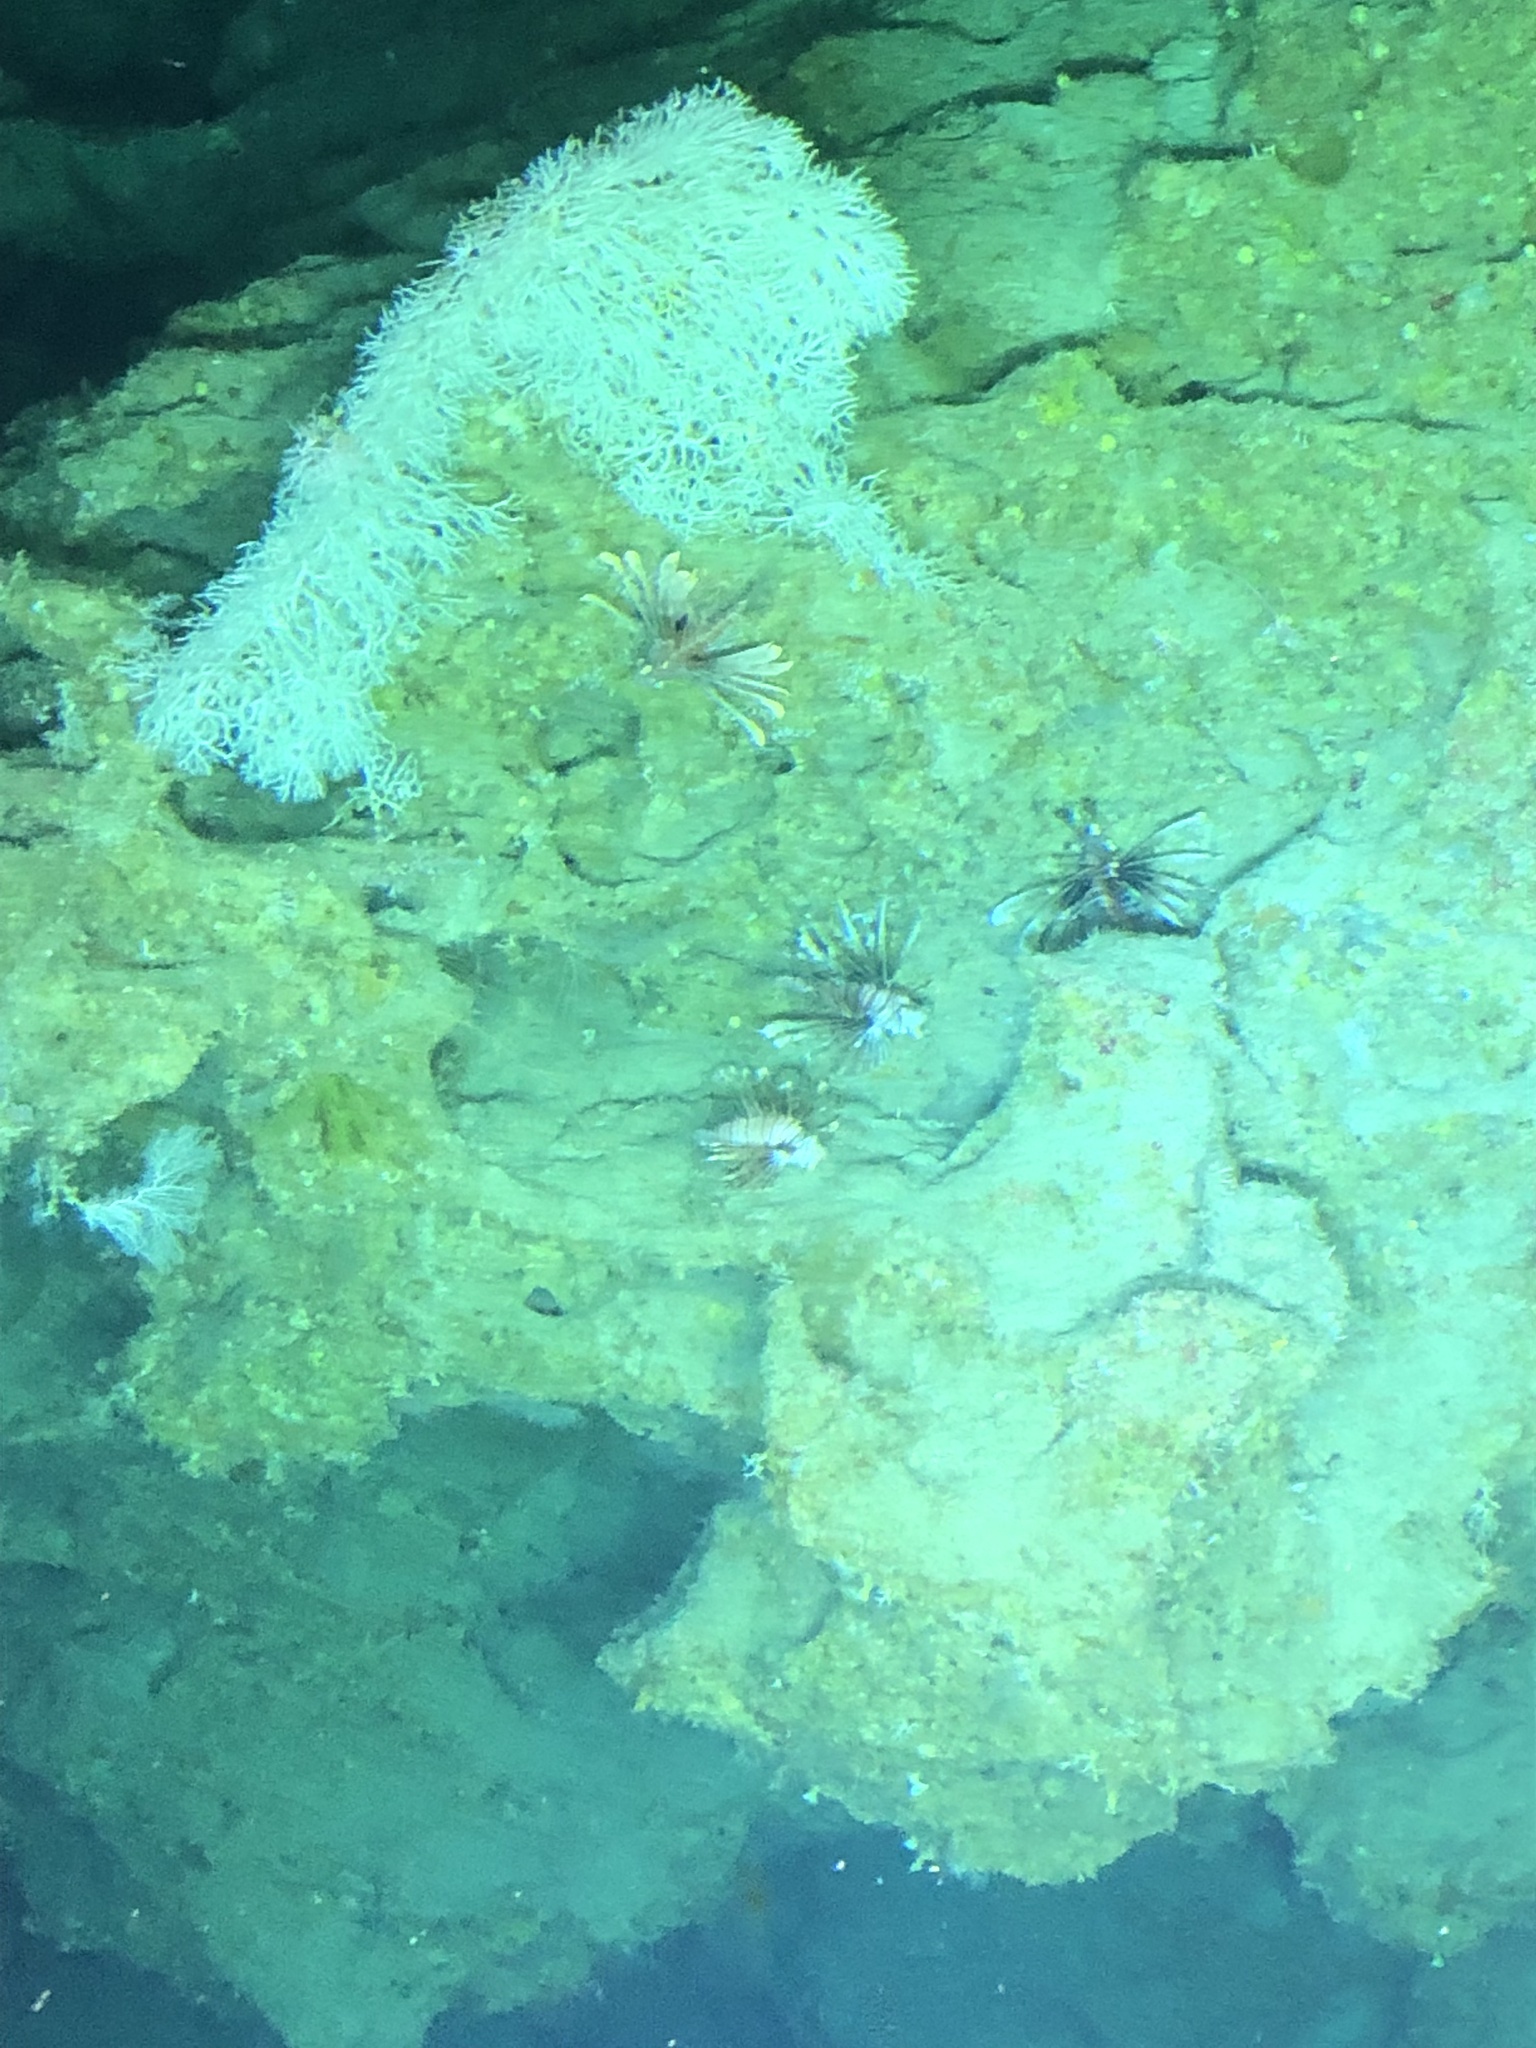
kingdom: Animalia
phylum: Chordata
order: Scorpaeniformes
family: Scorpaenidae
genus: Pterois
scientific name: Pterois volitans
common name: Lionfish
